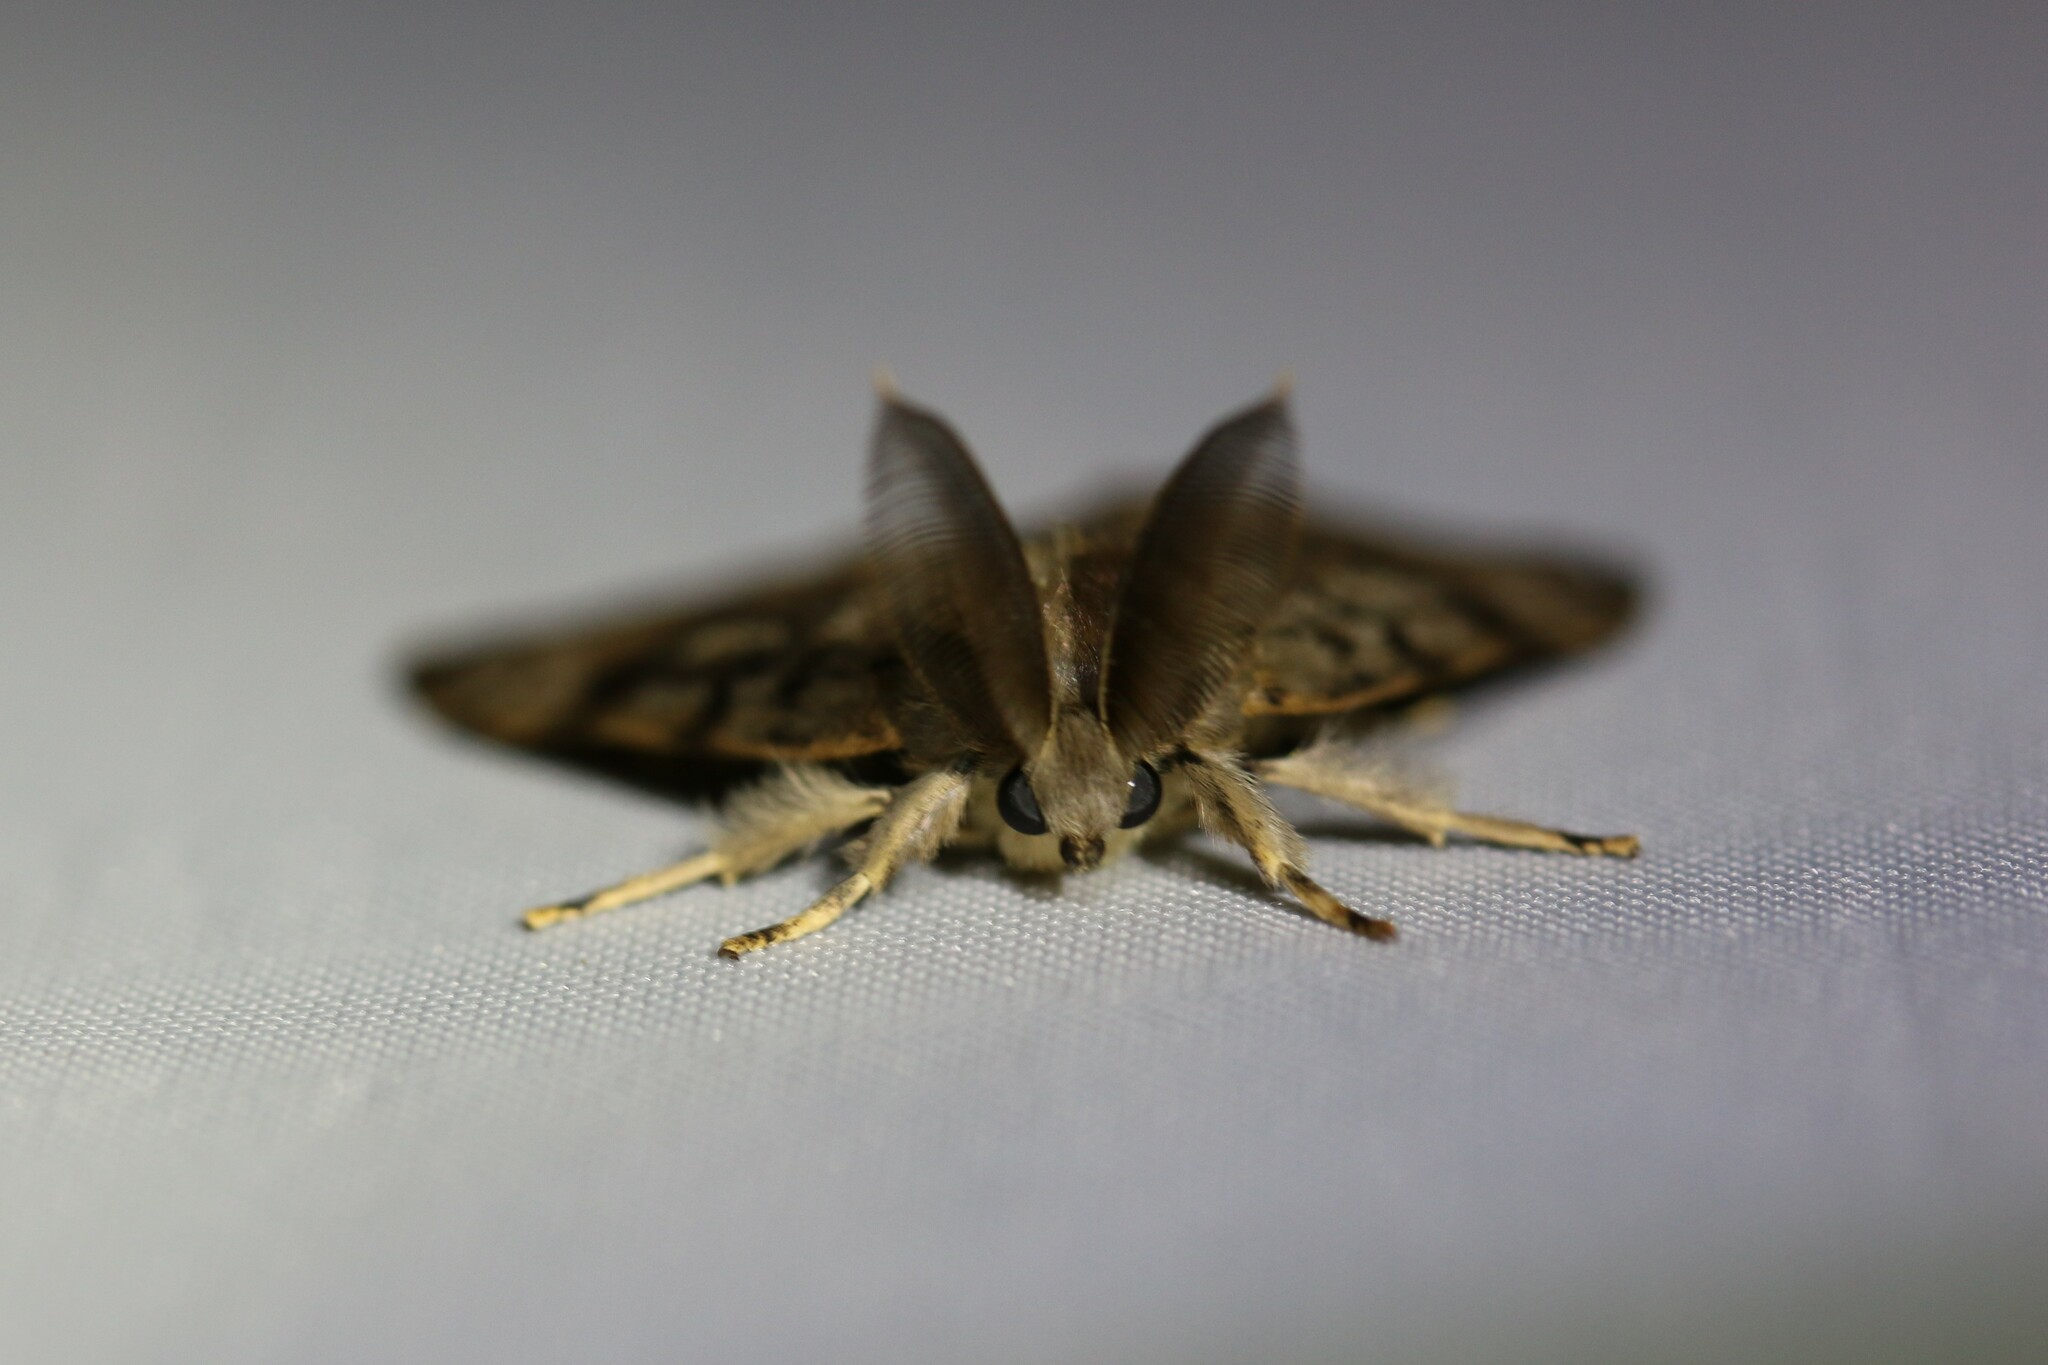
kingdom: Animalia
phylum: Arthropoda
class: Insecta
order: Lepidoptera
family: Erebidae
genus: Lymantria
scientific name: Lymantria dispar
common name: Gypsy moth
